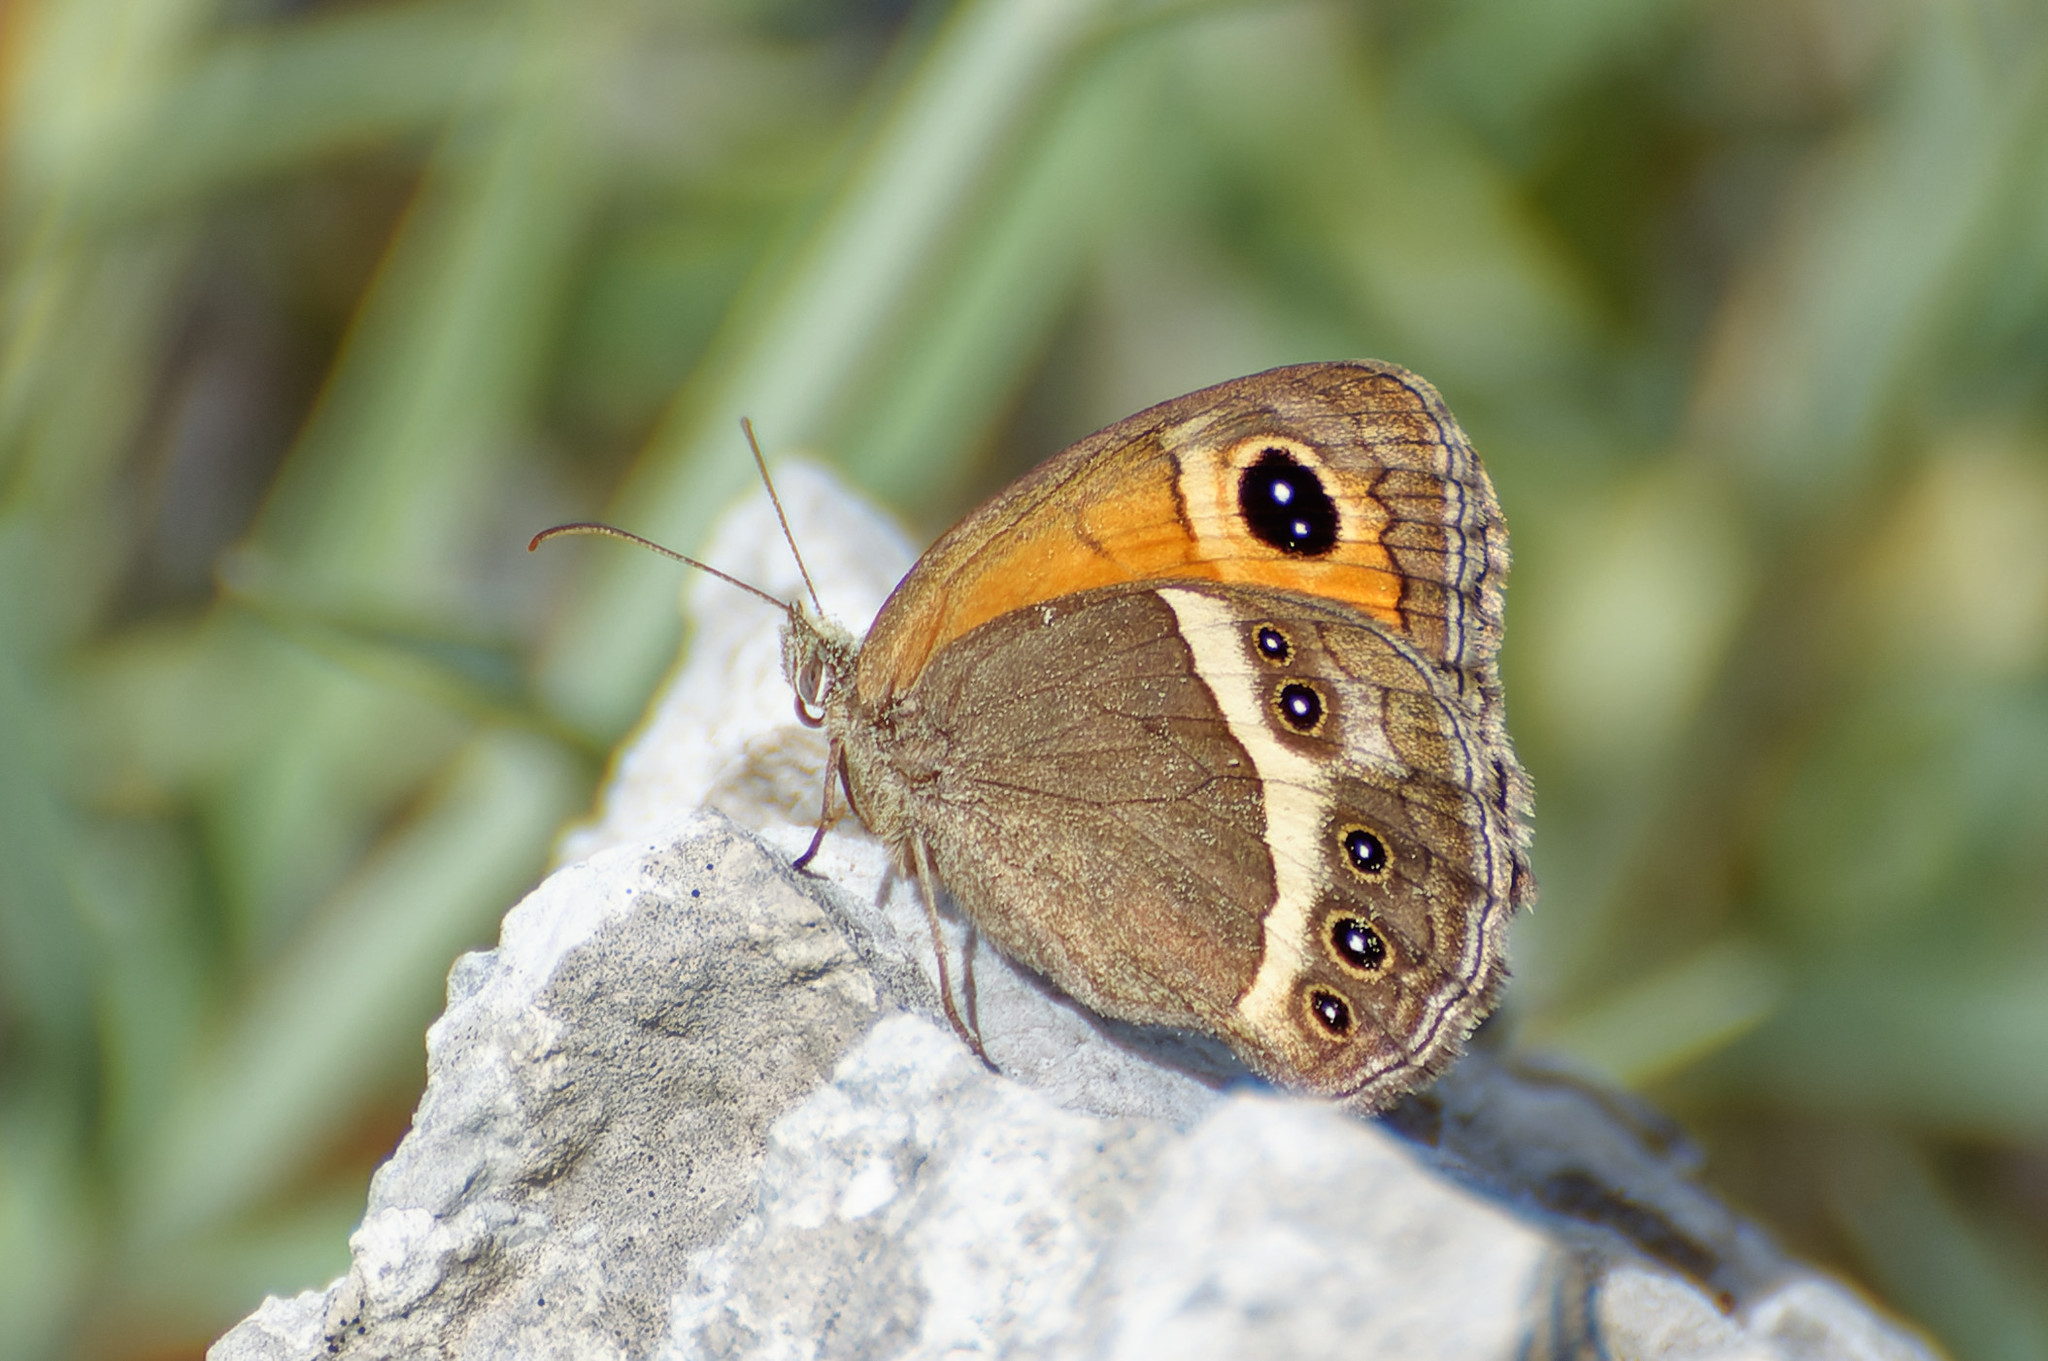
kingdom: Animalia
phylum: Arthropoda
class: Insecta
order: Lepidoptera
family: Nymphalidae
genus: Pyronia
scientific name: Pyronia bathseba
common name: Spanish gatekeeper
